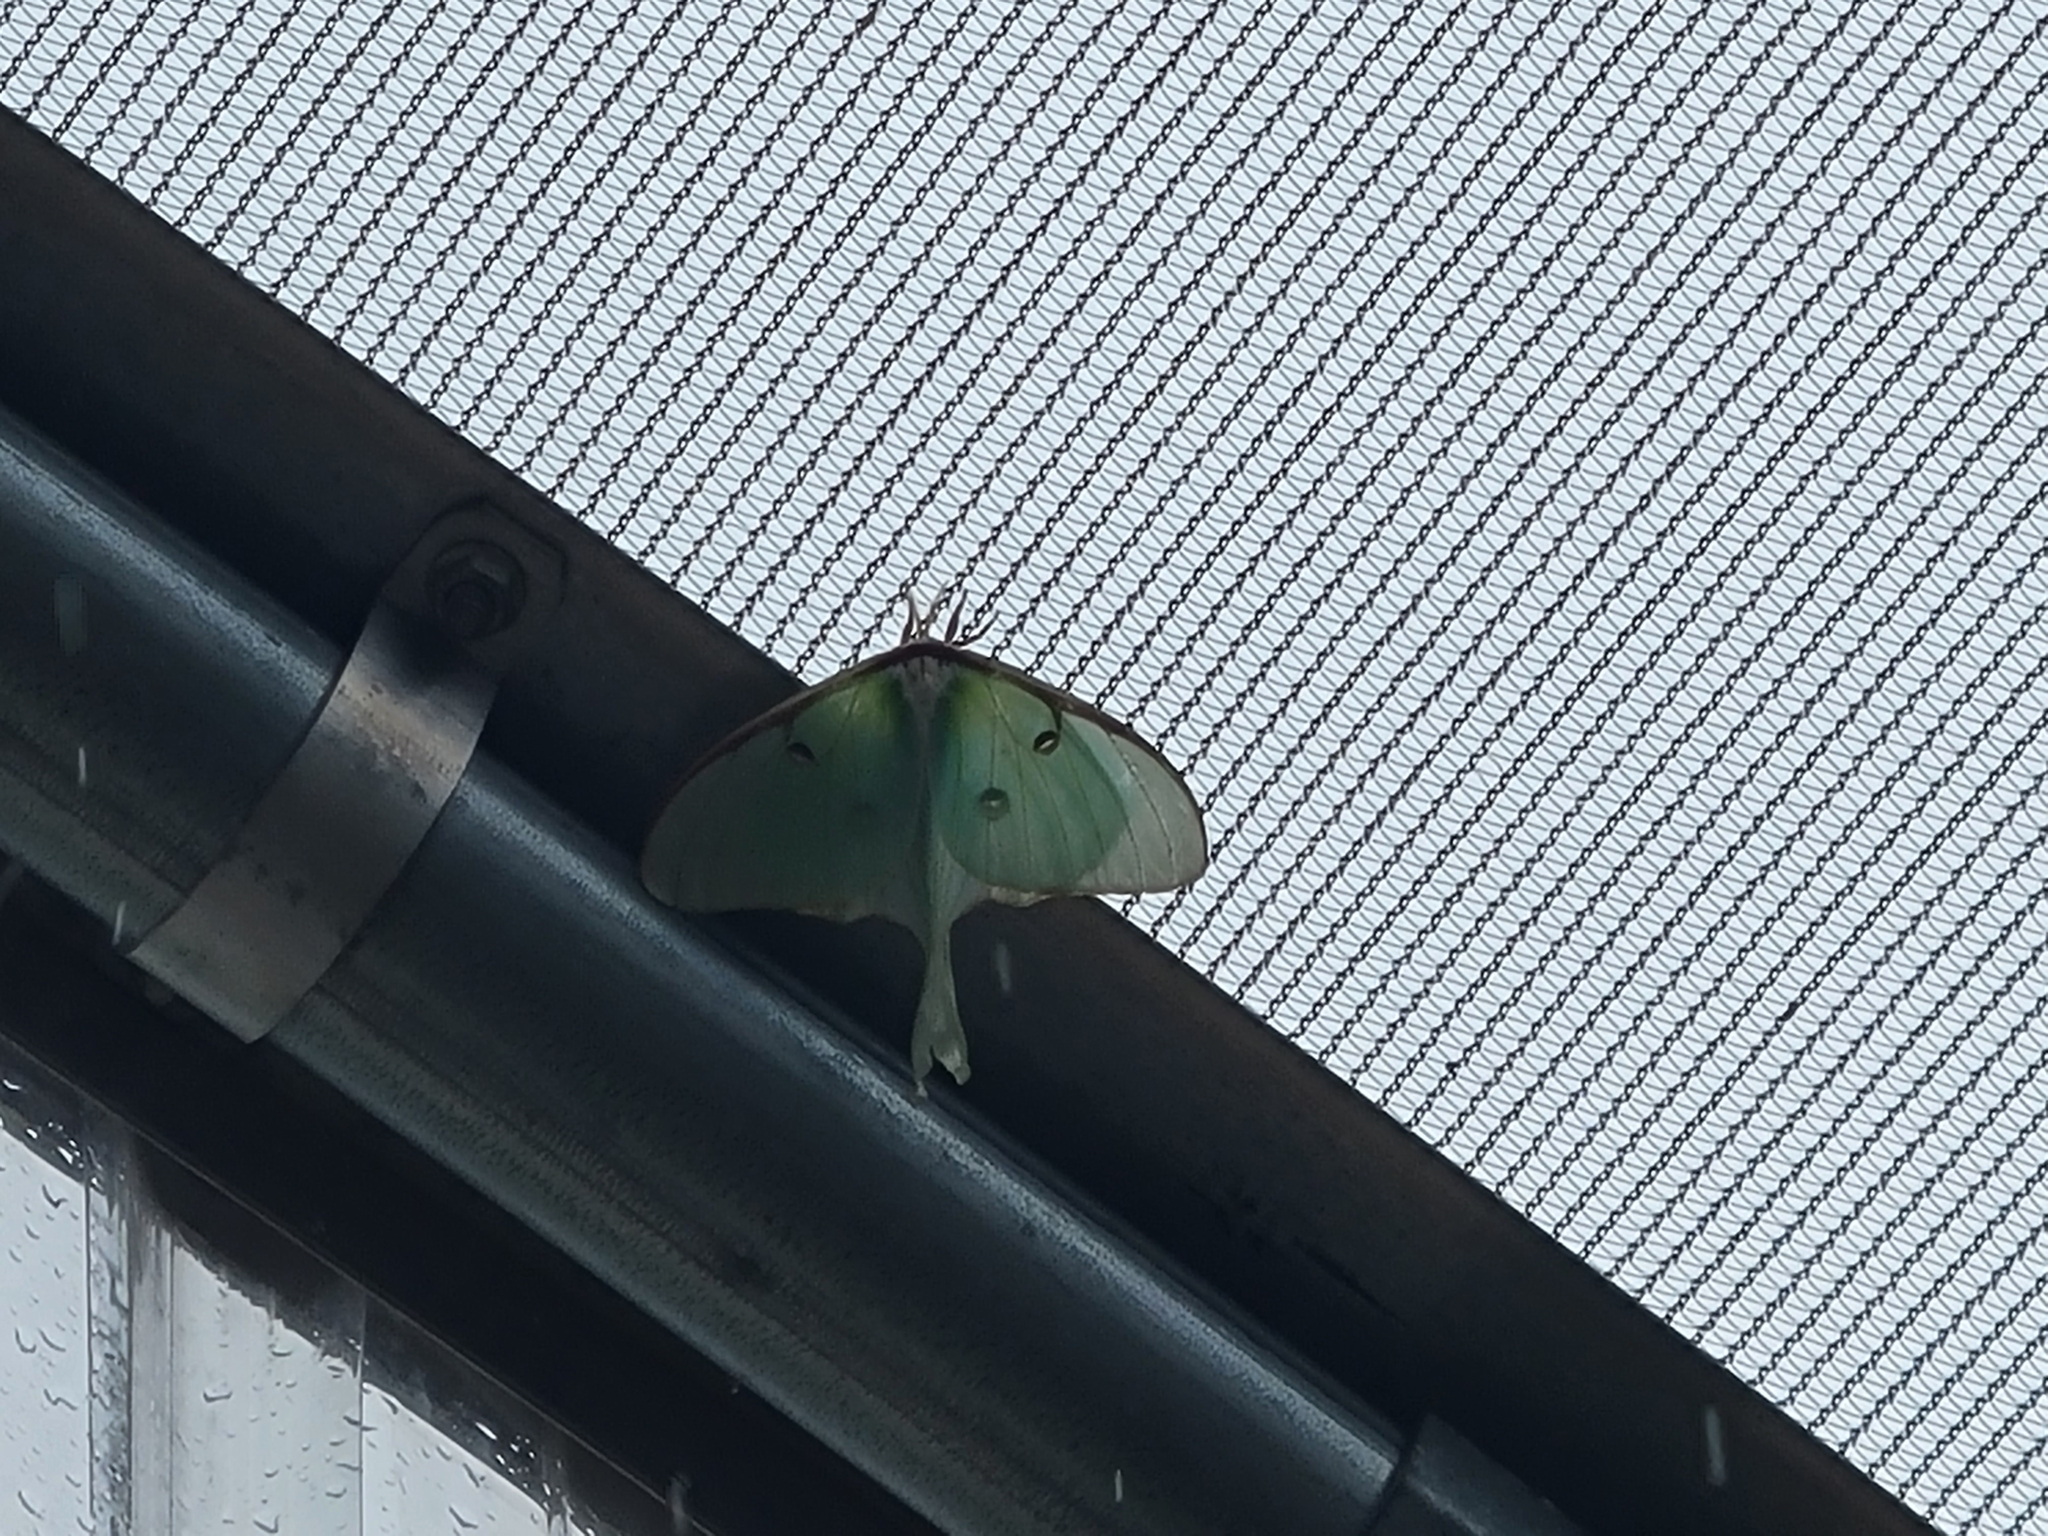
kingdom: Animalia
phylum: Arthropoda
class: Insecta
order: Lepidoptera
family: Saturniidae
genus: Actias
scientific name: Actias luna
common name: Luna moth
